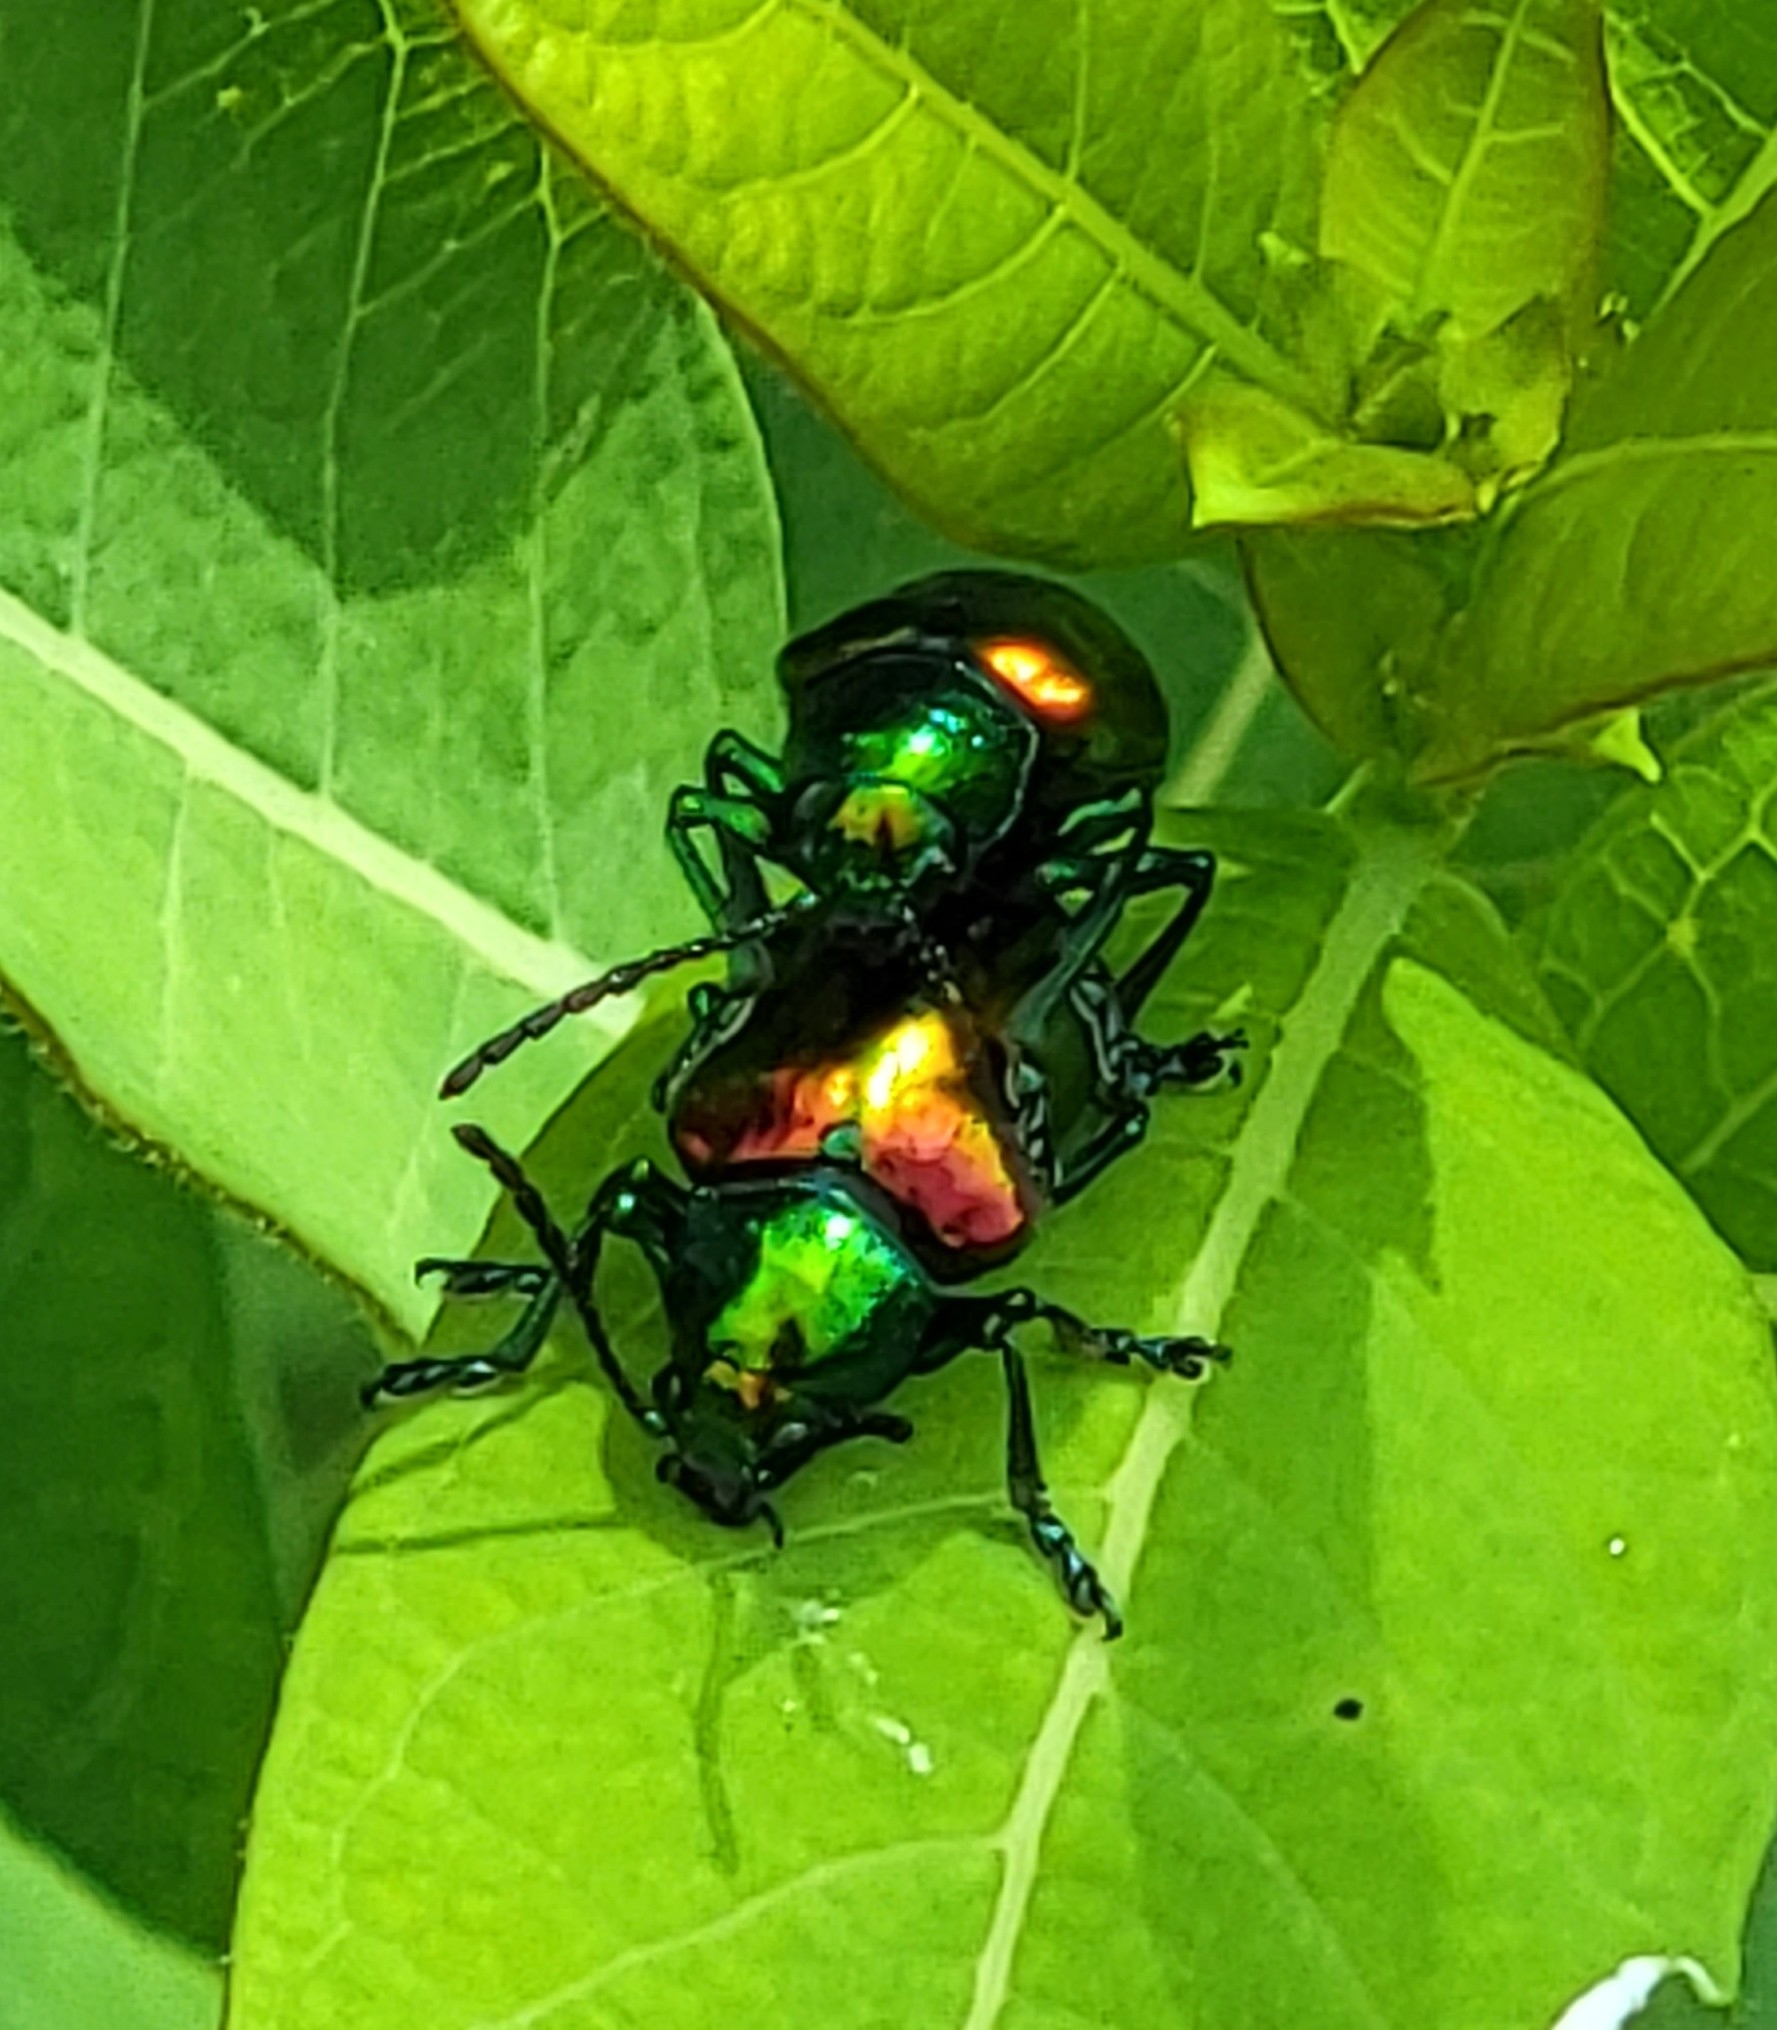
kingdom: Animalia
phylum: Arthropoda
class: Insecta
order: Coleoptera
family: Chrysomelidae
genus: Chrysochus
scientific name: Chrysochus auratus
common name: Dogbane leaf beetle
